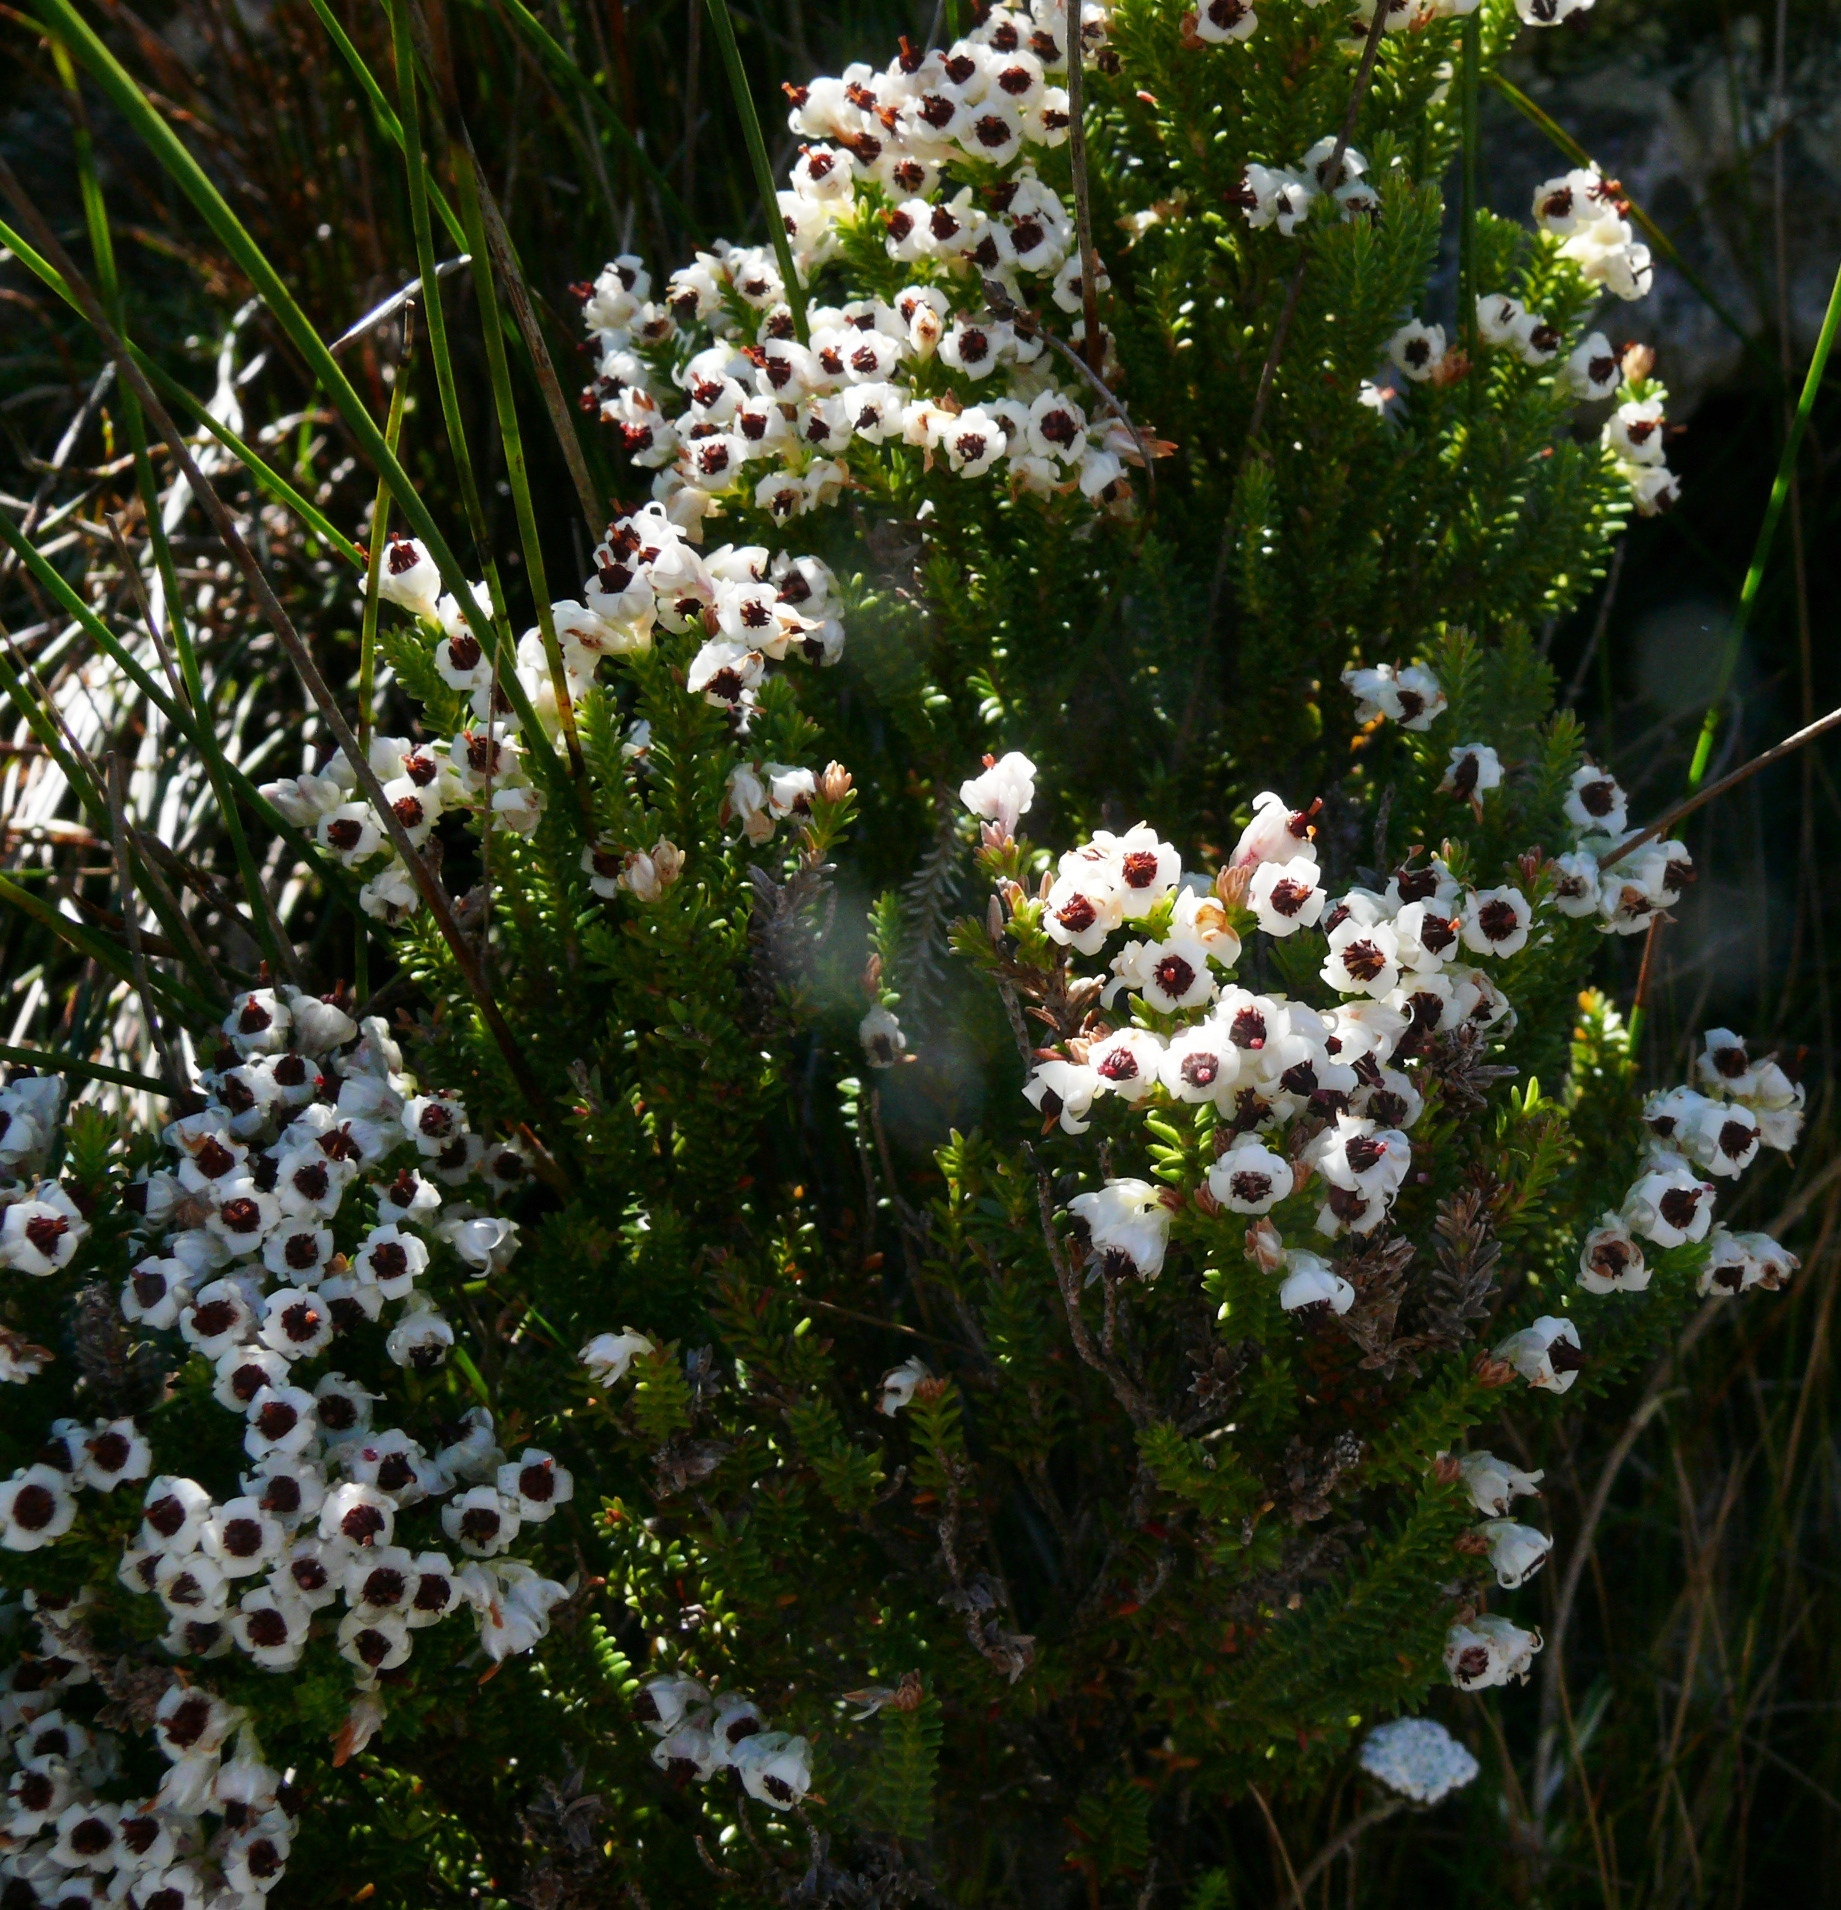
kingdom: Plantae
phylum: Tracheophyta
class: Magnoliopsida
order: Ericales
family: Ericaceae
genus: Erica
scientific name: Erica calycina
